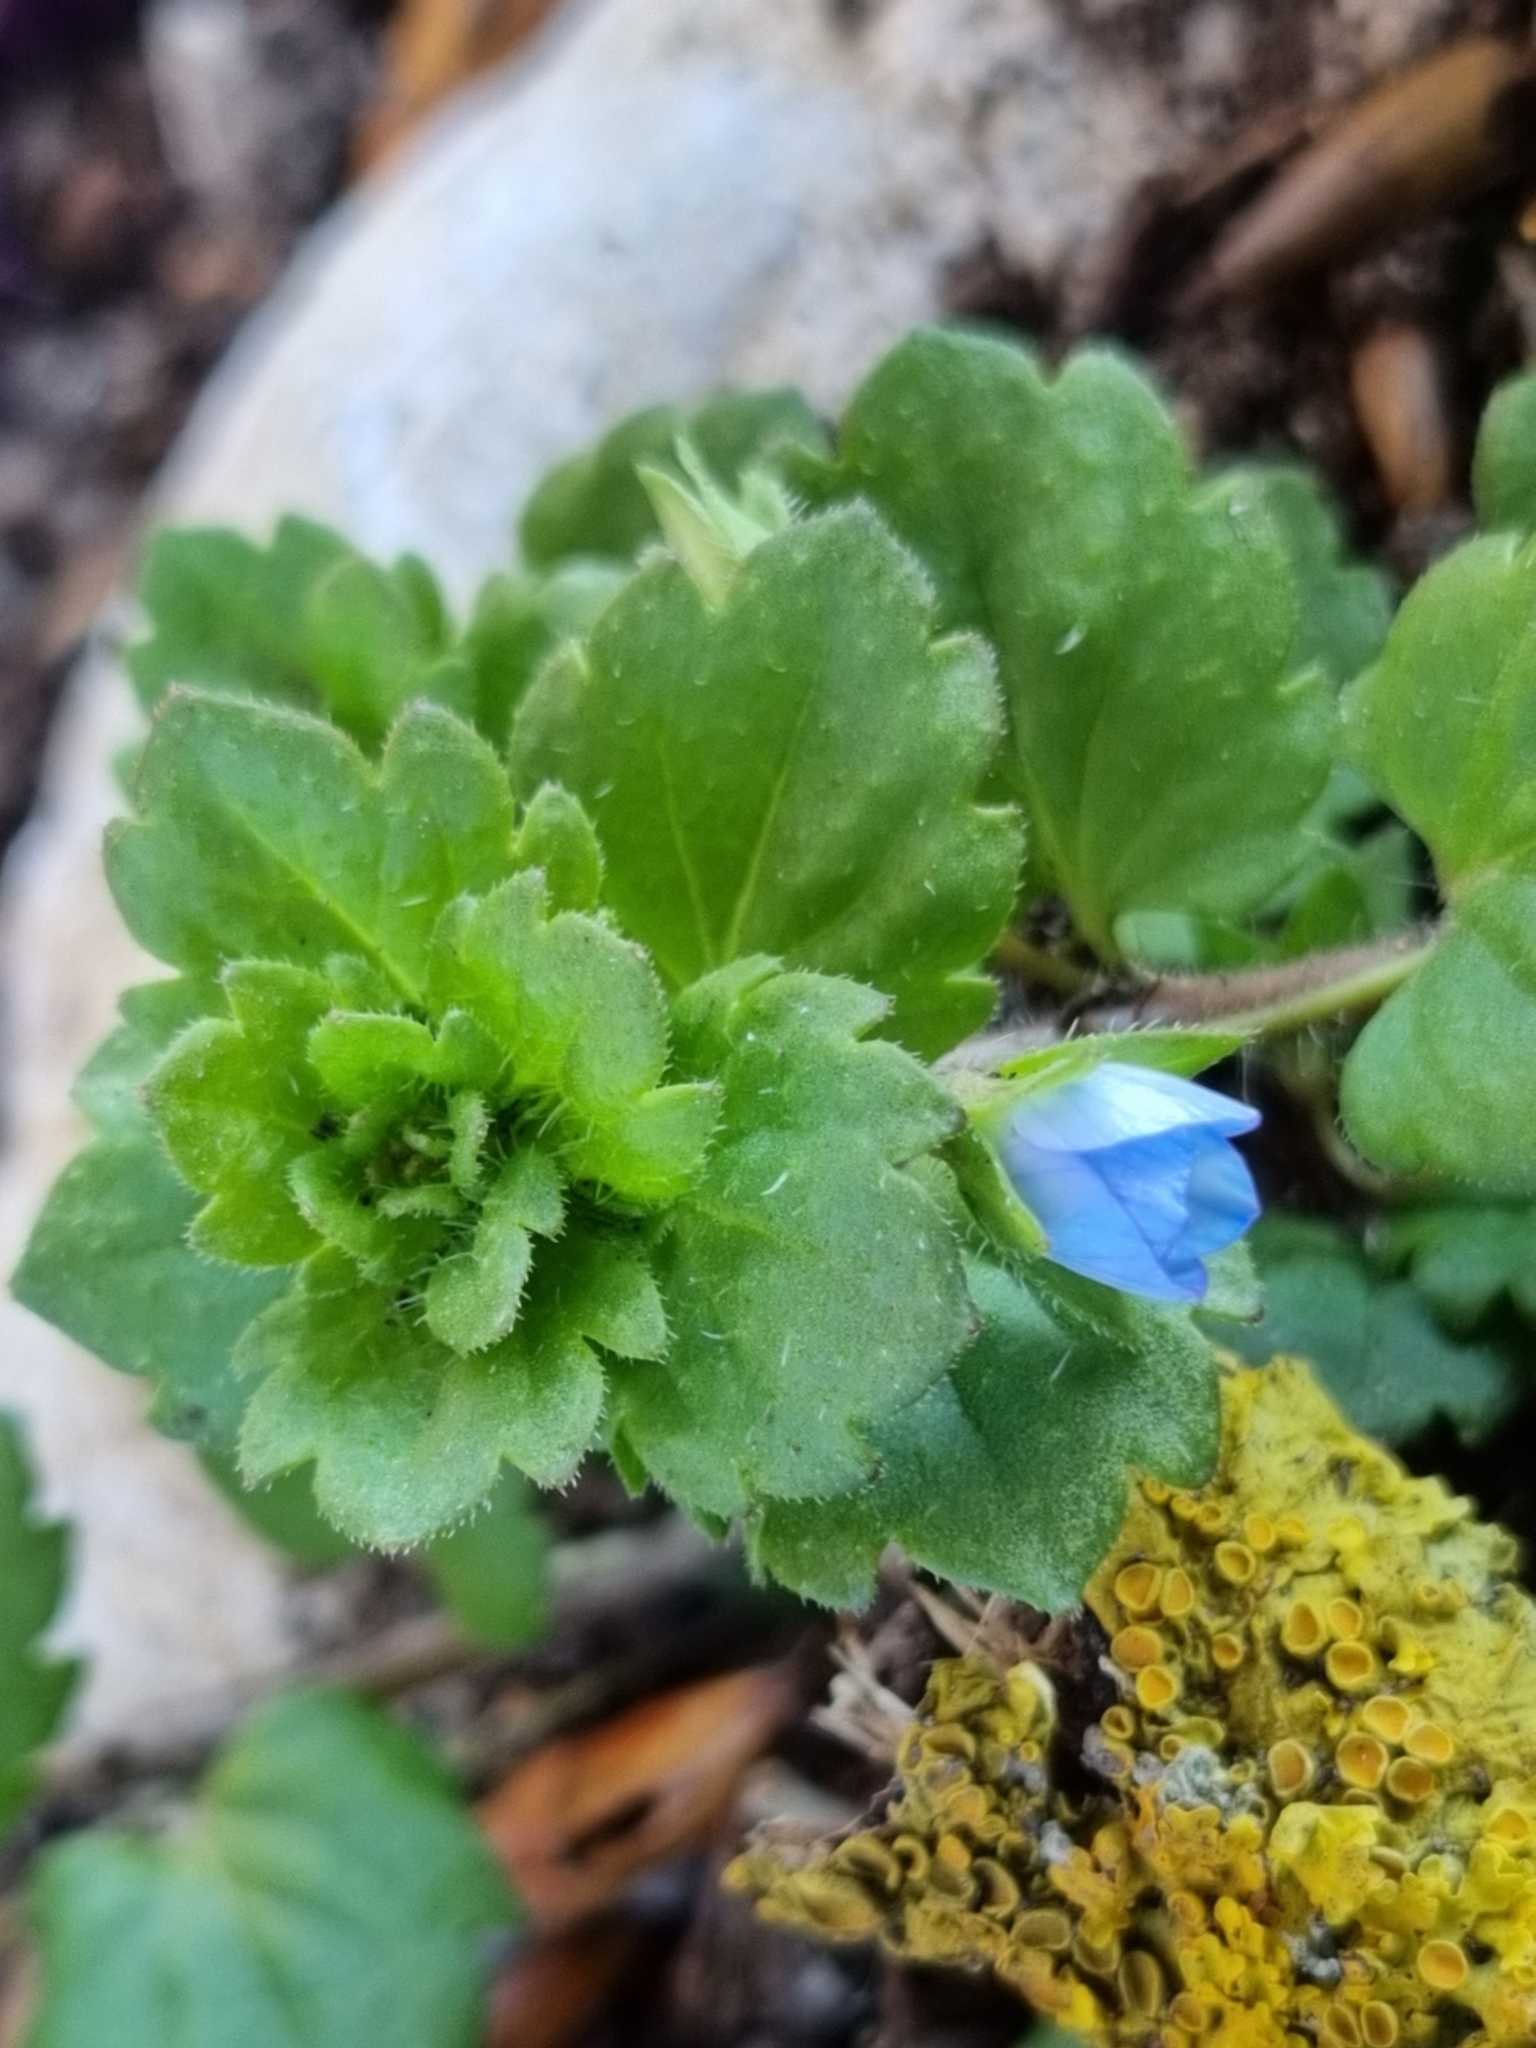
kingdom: Plantae
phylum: Tracheophyta
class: Magnoliopsida
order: Lamiales
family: Plantaginaceae
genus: Veronica
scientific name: Veronica persica
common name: Common field-speedwell
